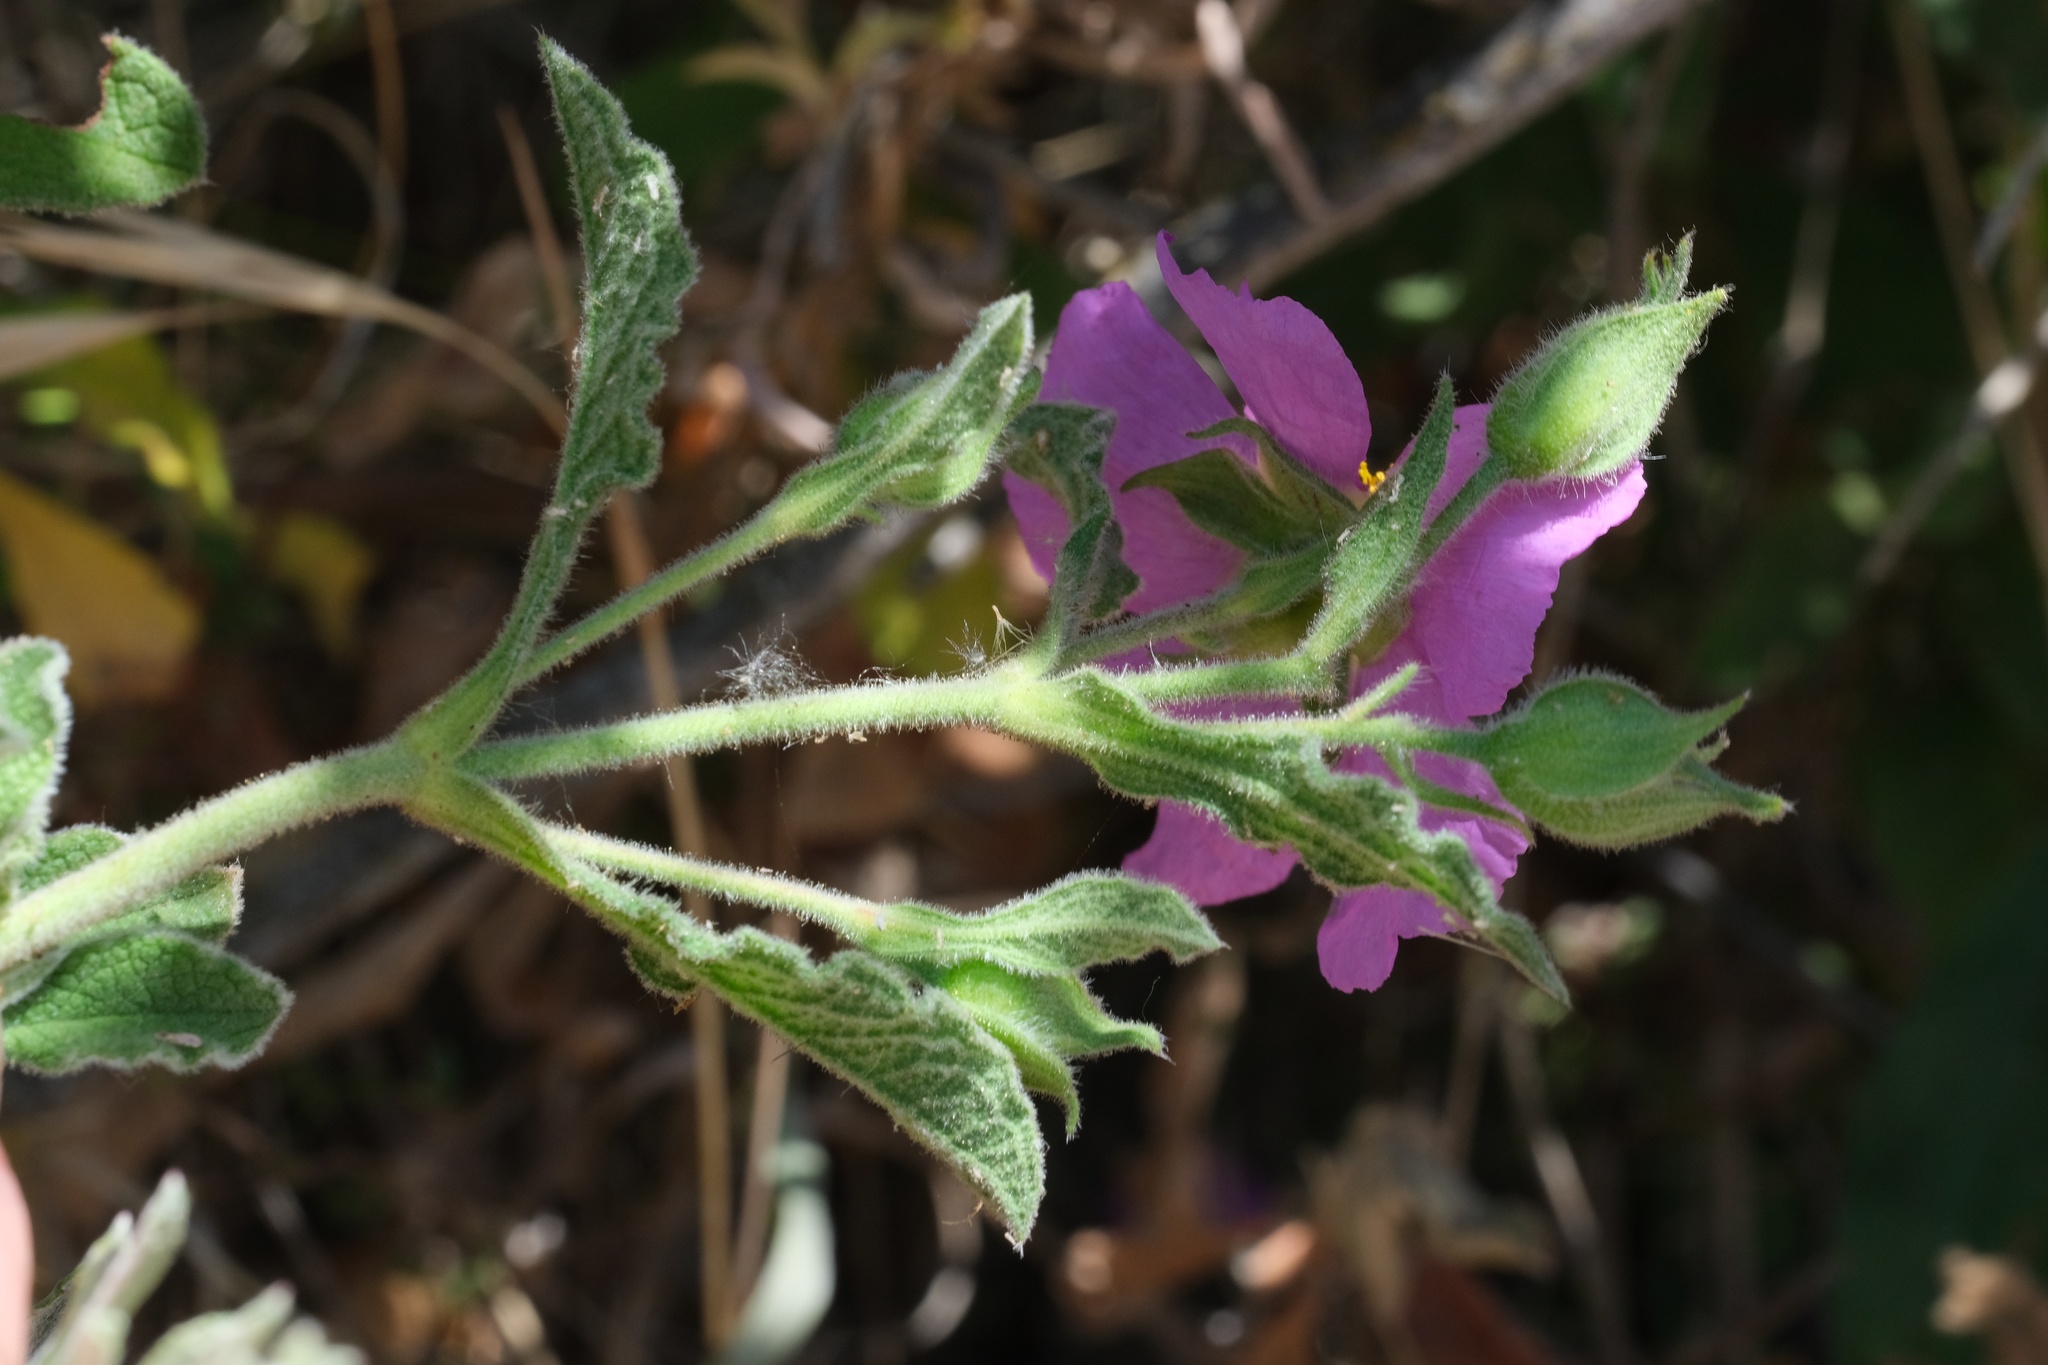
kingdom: Plantae
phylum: Tracheophyta
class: Magnoliopsida
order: Malvales
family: Cistaceae
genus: Cistus
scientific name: Cistus creticus
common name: Cretan rockrose
